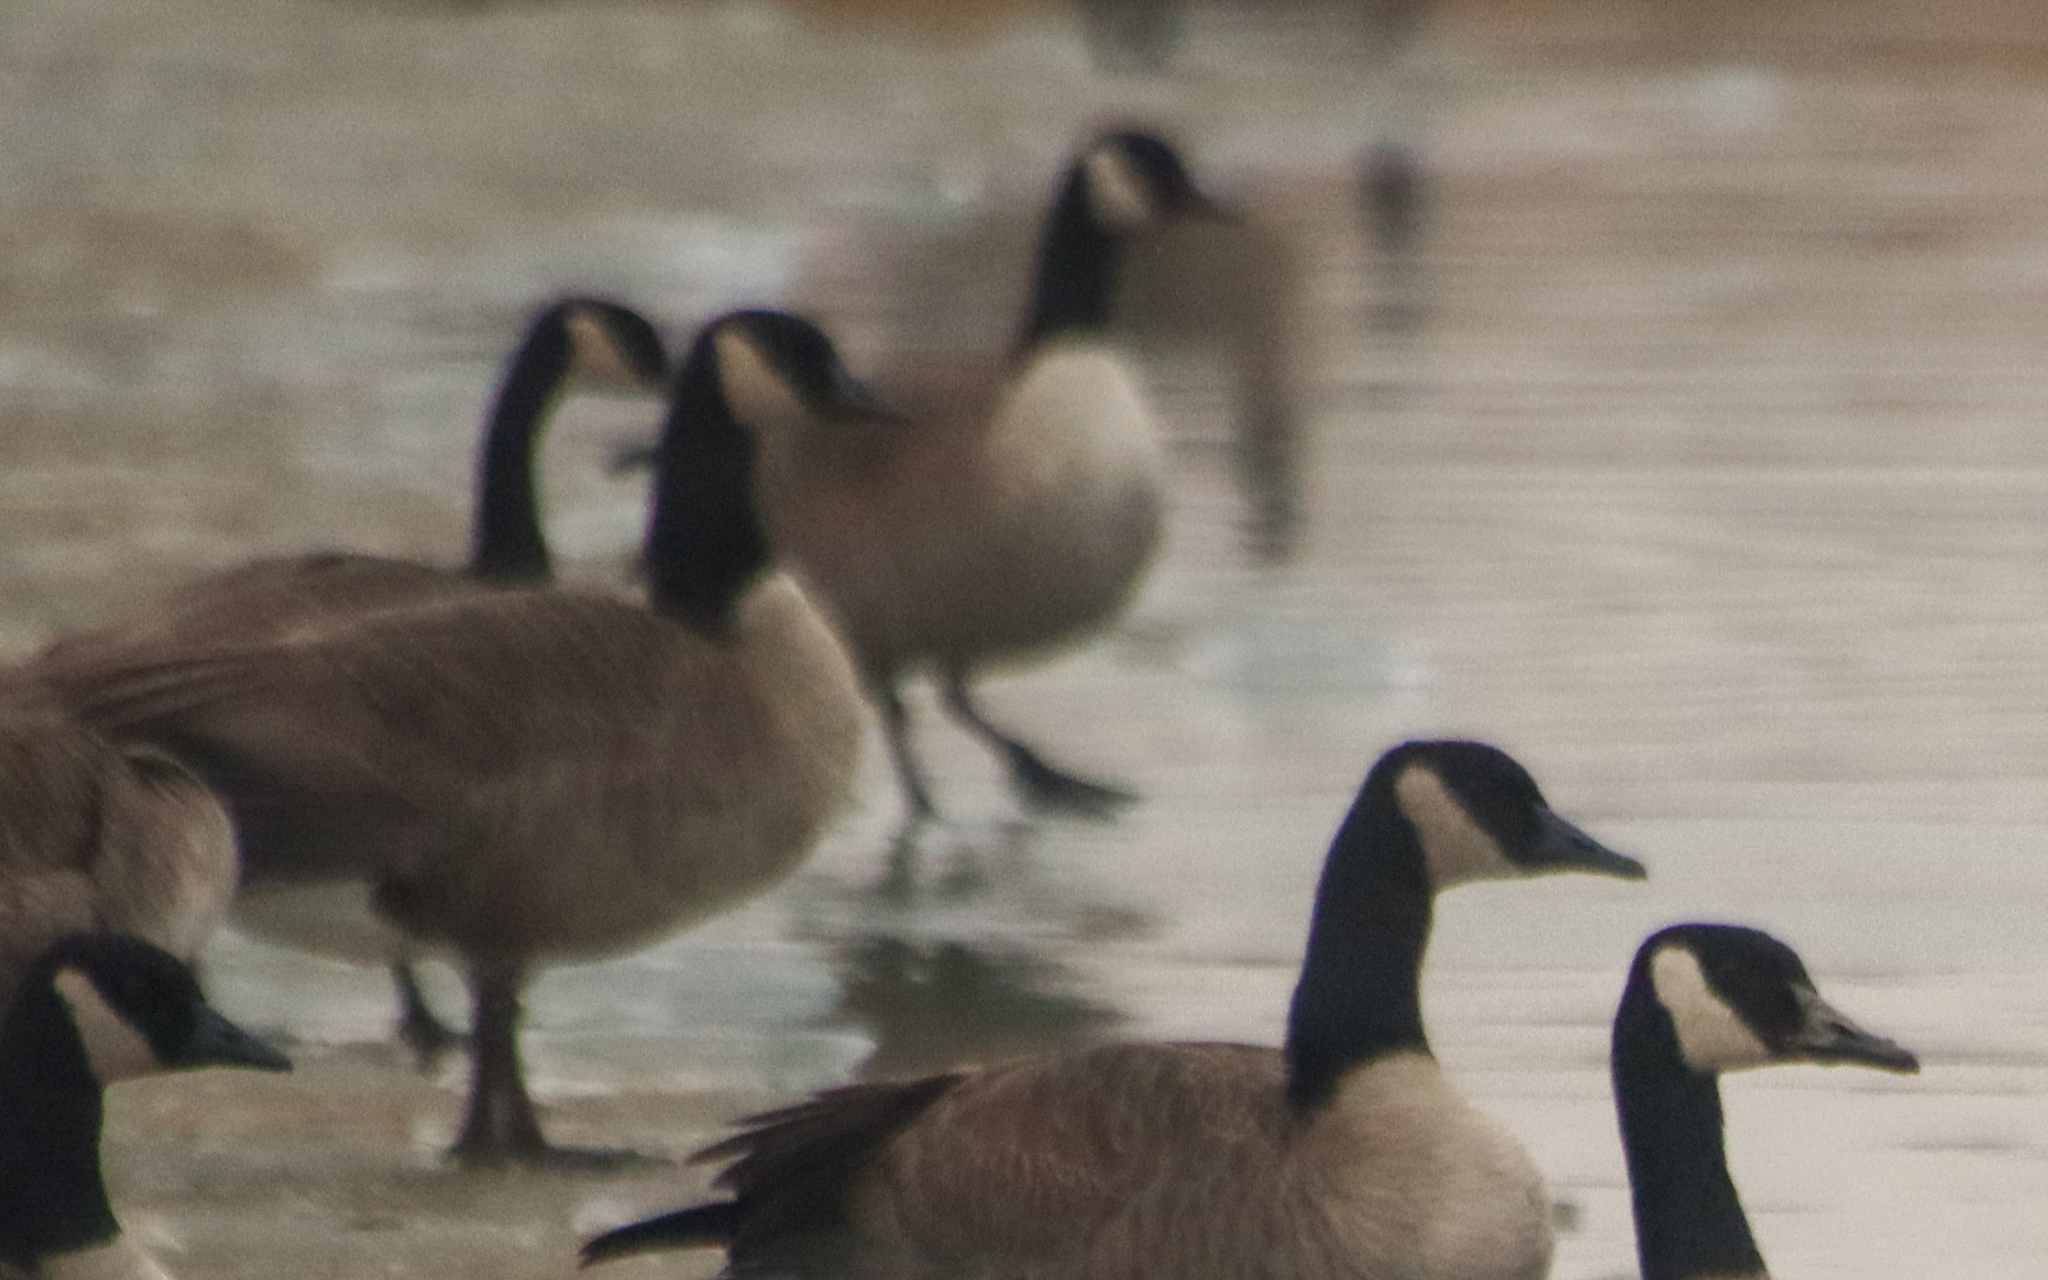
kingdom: Animalia
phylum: Chordata
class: Aves
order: Anseriformes
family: Anatidae
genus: Branta
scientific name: Branta canadensis
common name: Canada goose
